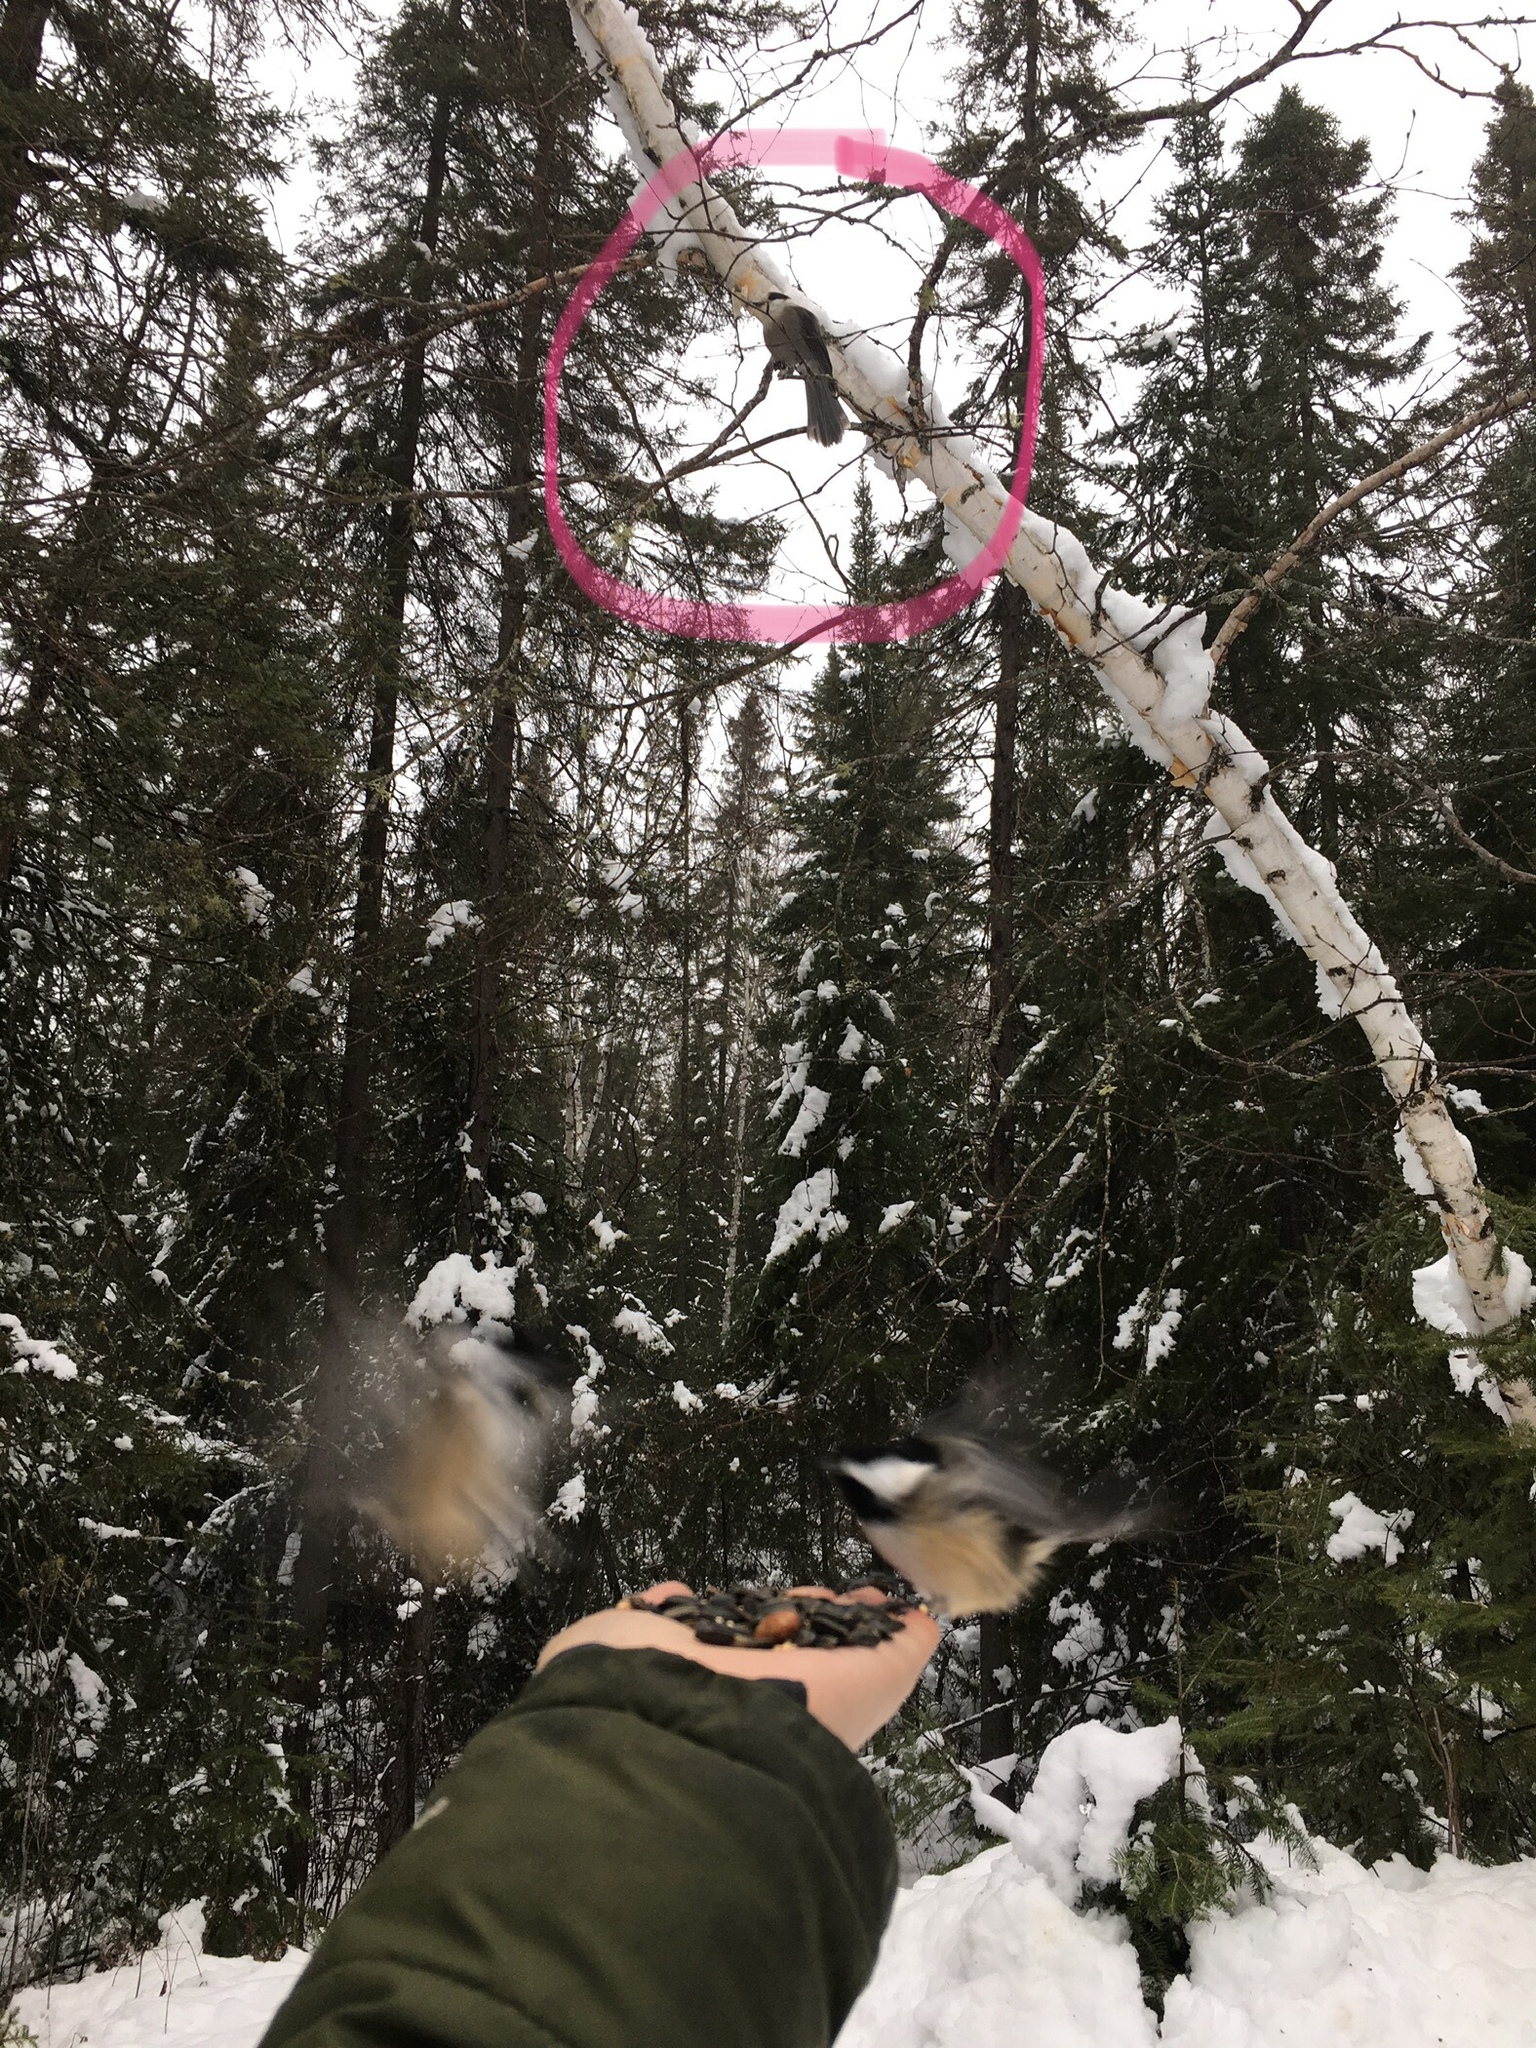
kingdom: Animalia
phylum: Chordata
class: Aves
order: Passeriformes
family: Corvidae
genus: Perisoreus
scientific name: Perisoreus canadensis
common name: Gray jay
